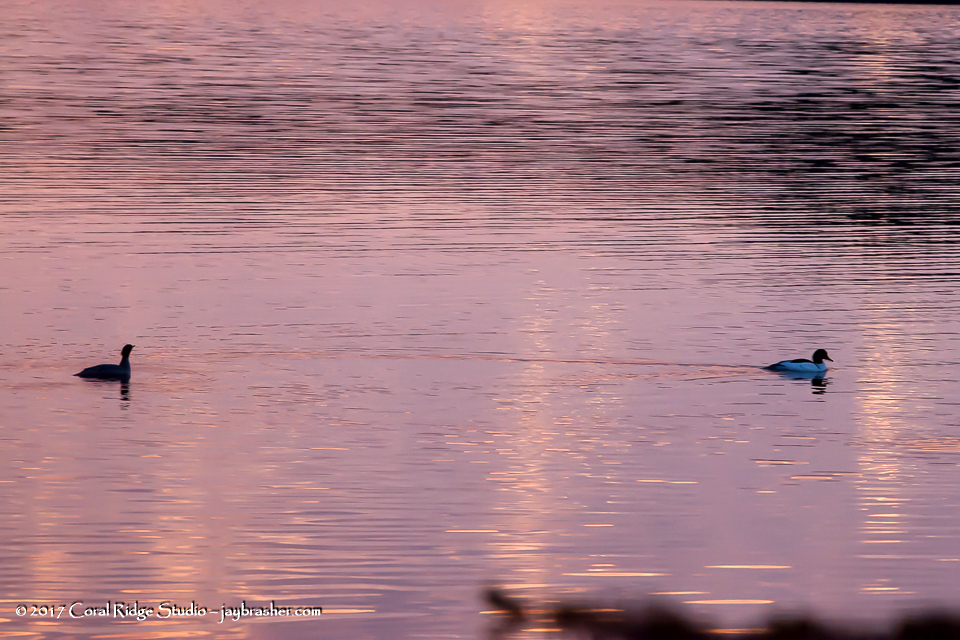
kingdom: Animalia
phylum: Chordata
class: Aves
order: Anseriformes
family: Anatidae
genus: Mergus
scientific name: Mergus merganser
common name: Common merganser
